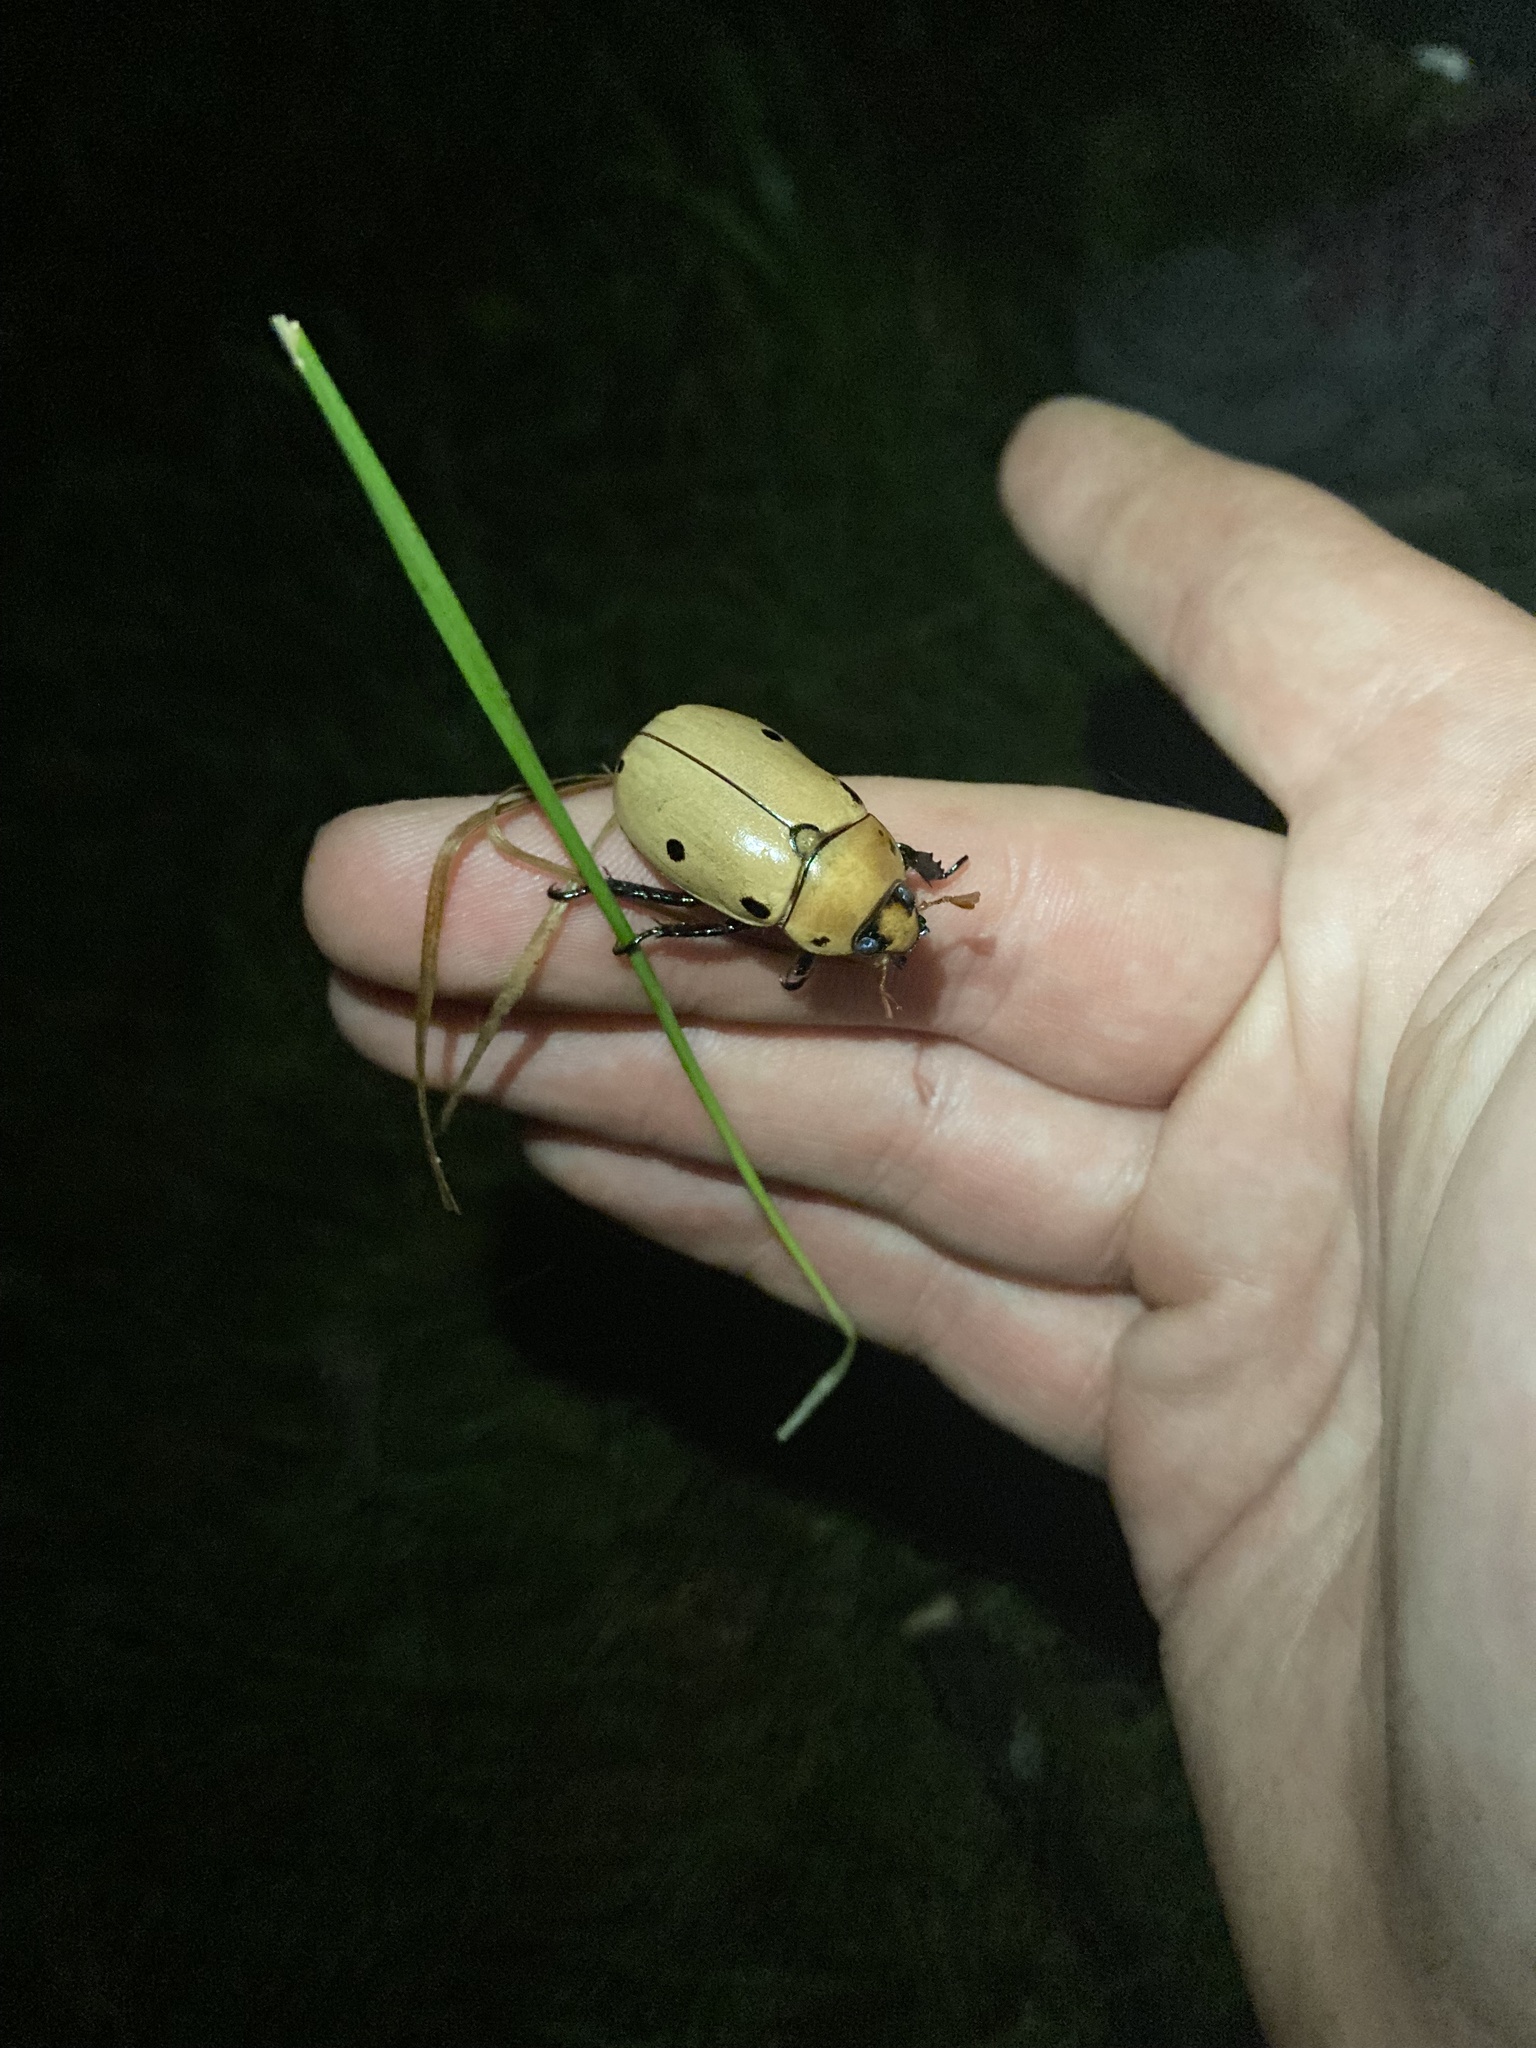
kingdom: Animalia
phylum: Arthropoda
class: Insecta
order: Coleoptera
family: Scarabaeidae
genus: Pelidnota
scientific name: Pelidnota punctata
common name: Grapevine beetle
